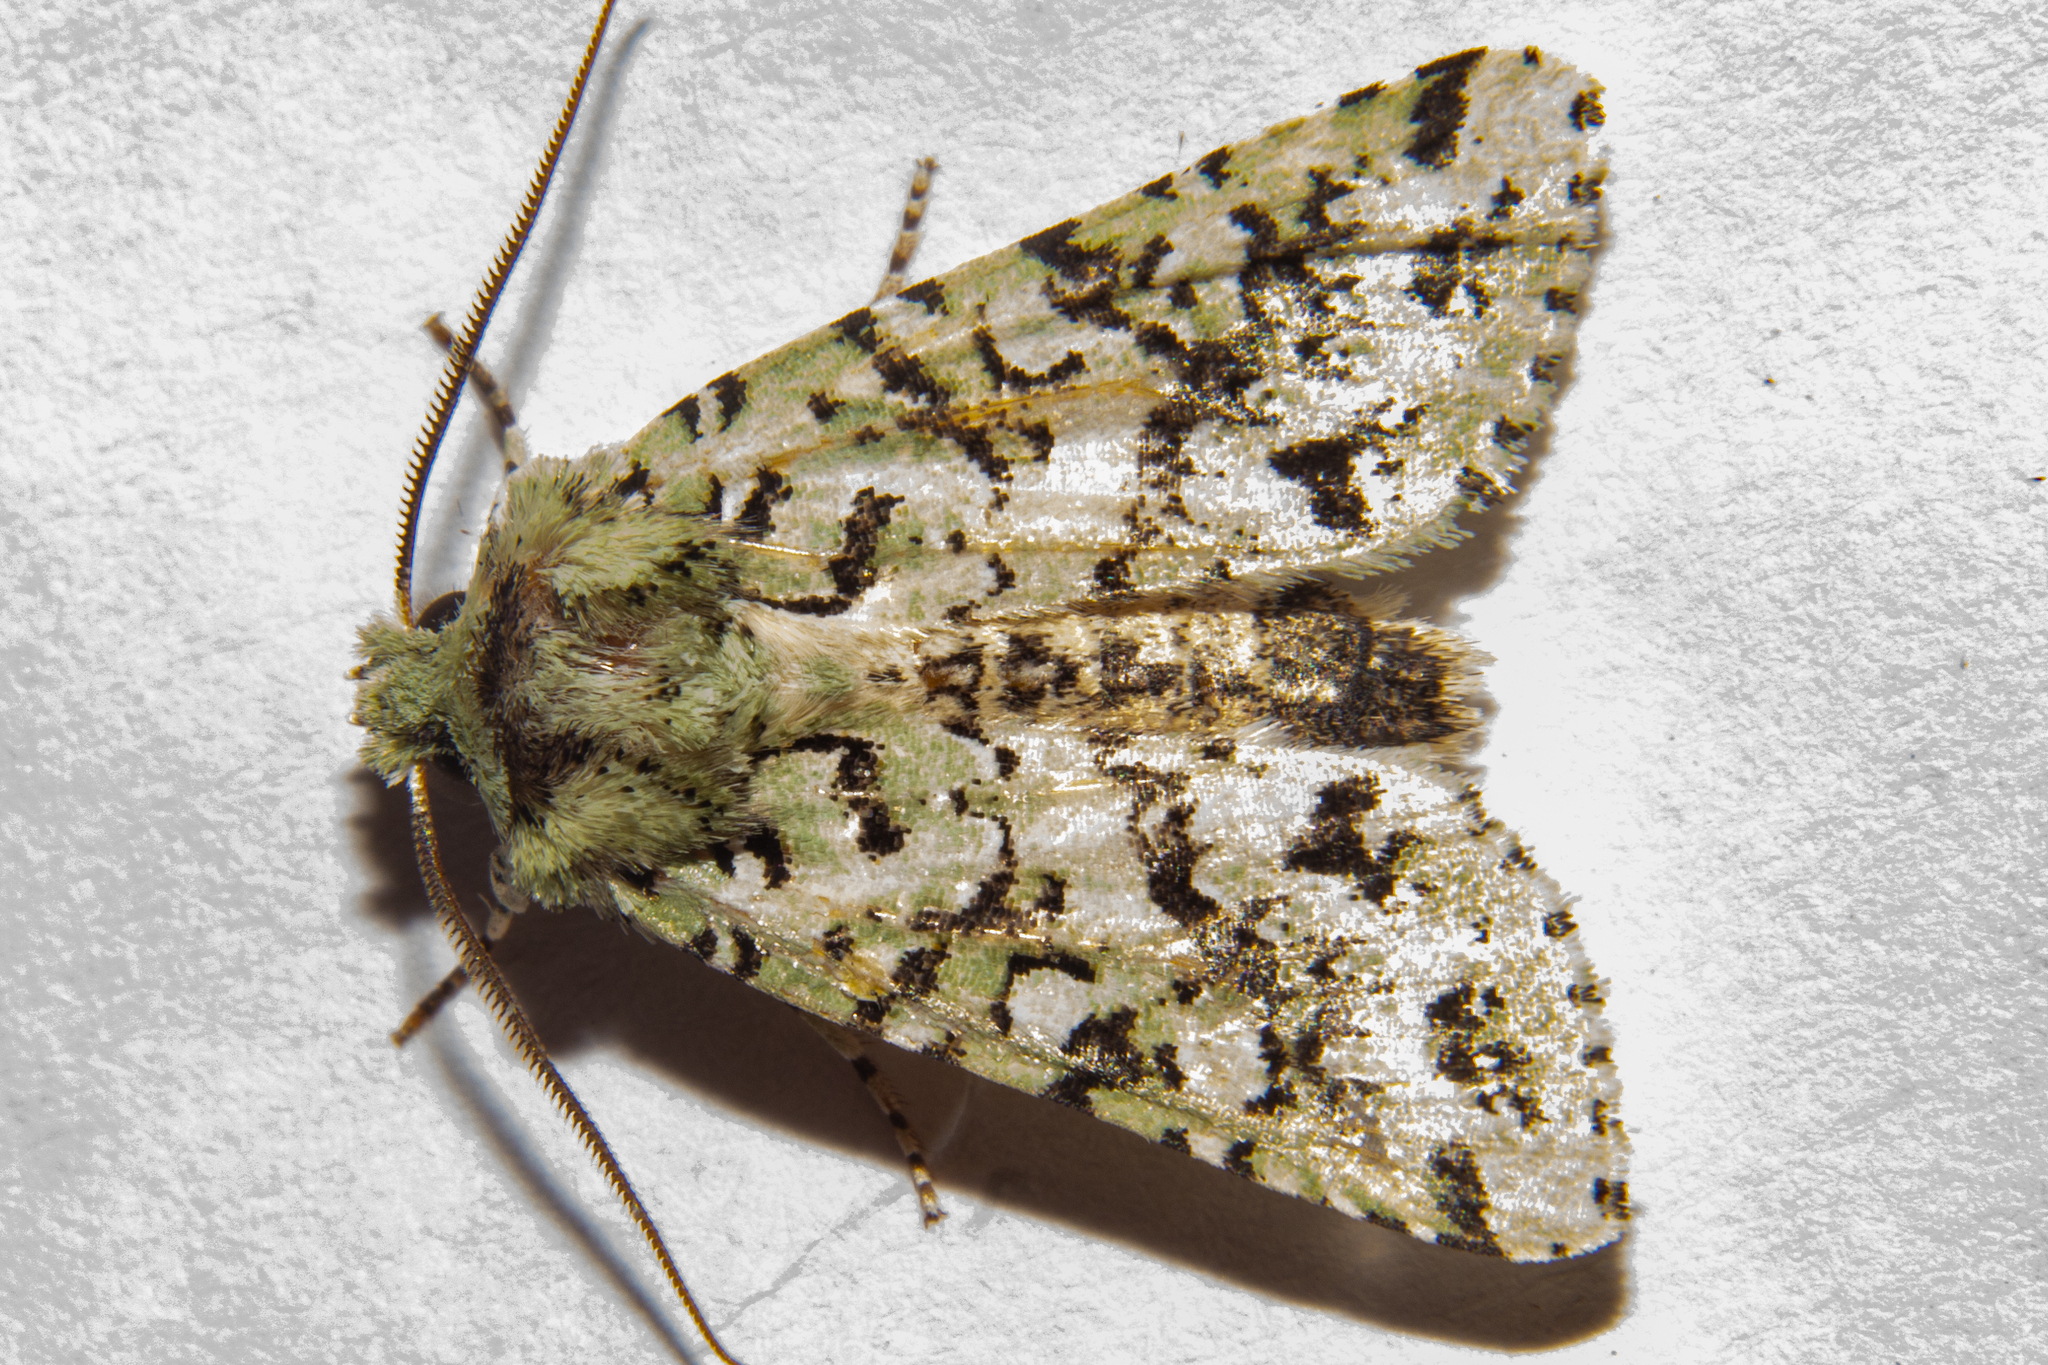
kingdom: Animalia
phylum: Arthropoda
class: Insecta
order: Lepidoptera
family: Noctuidae
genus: Meterana
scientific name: Meterana
